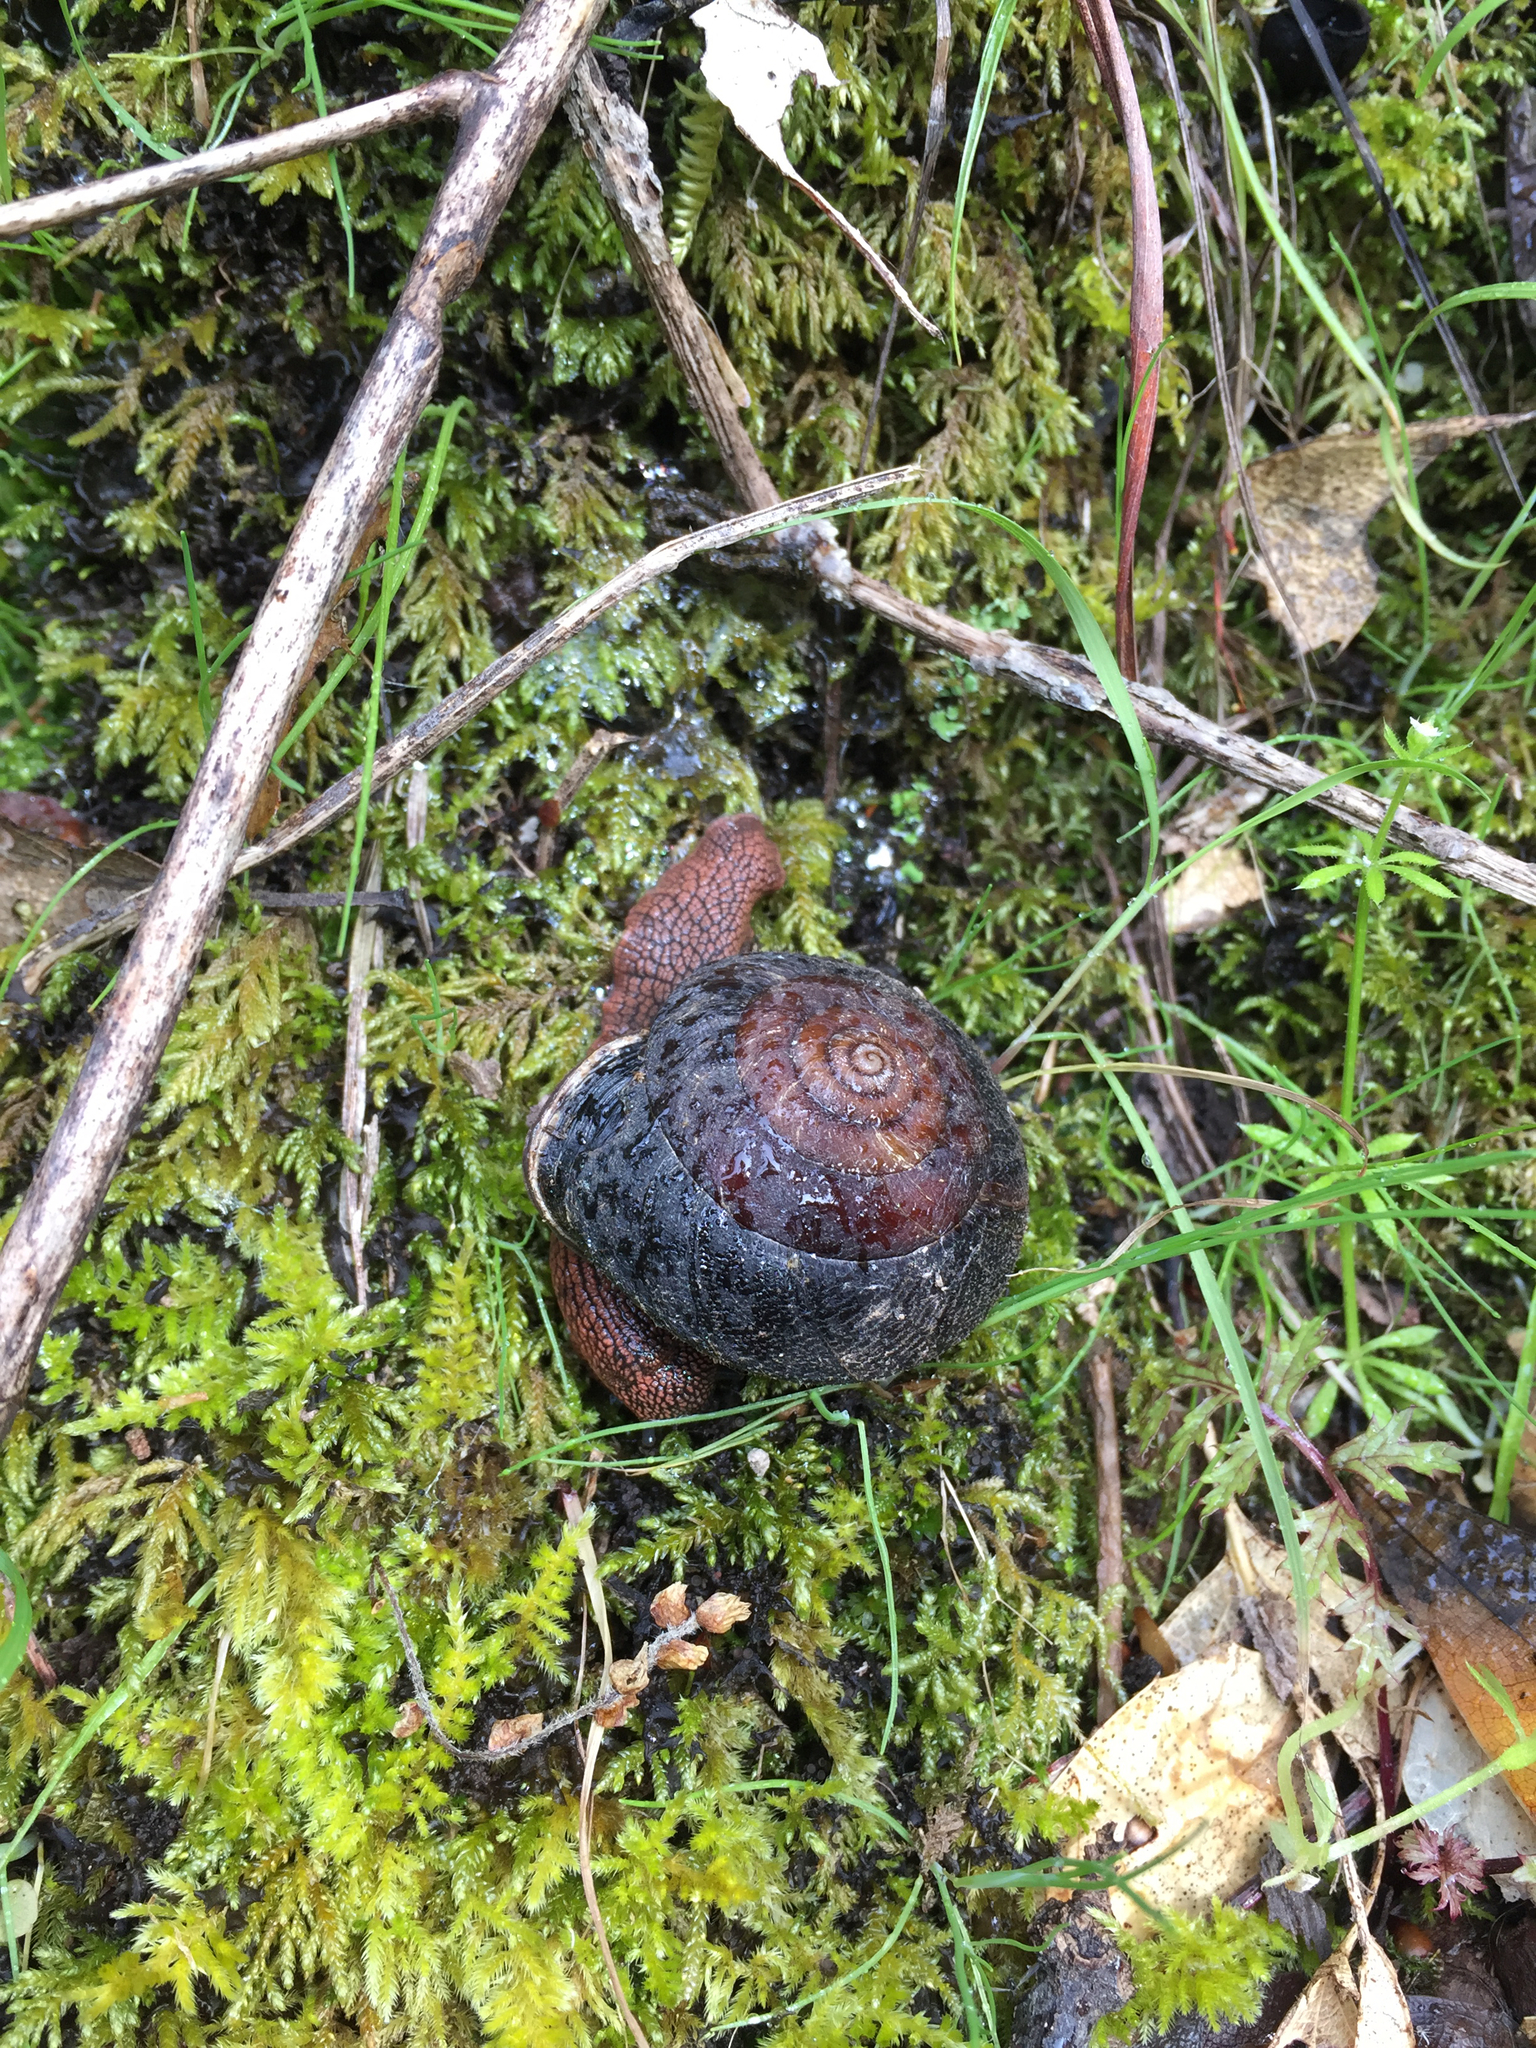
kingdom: Animalia
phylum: Mollusca
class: Gastropoda
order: Stylommatophora
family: Xanthonychidae
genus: Monadenia
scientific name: Monadenia infumata
